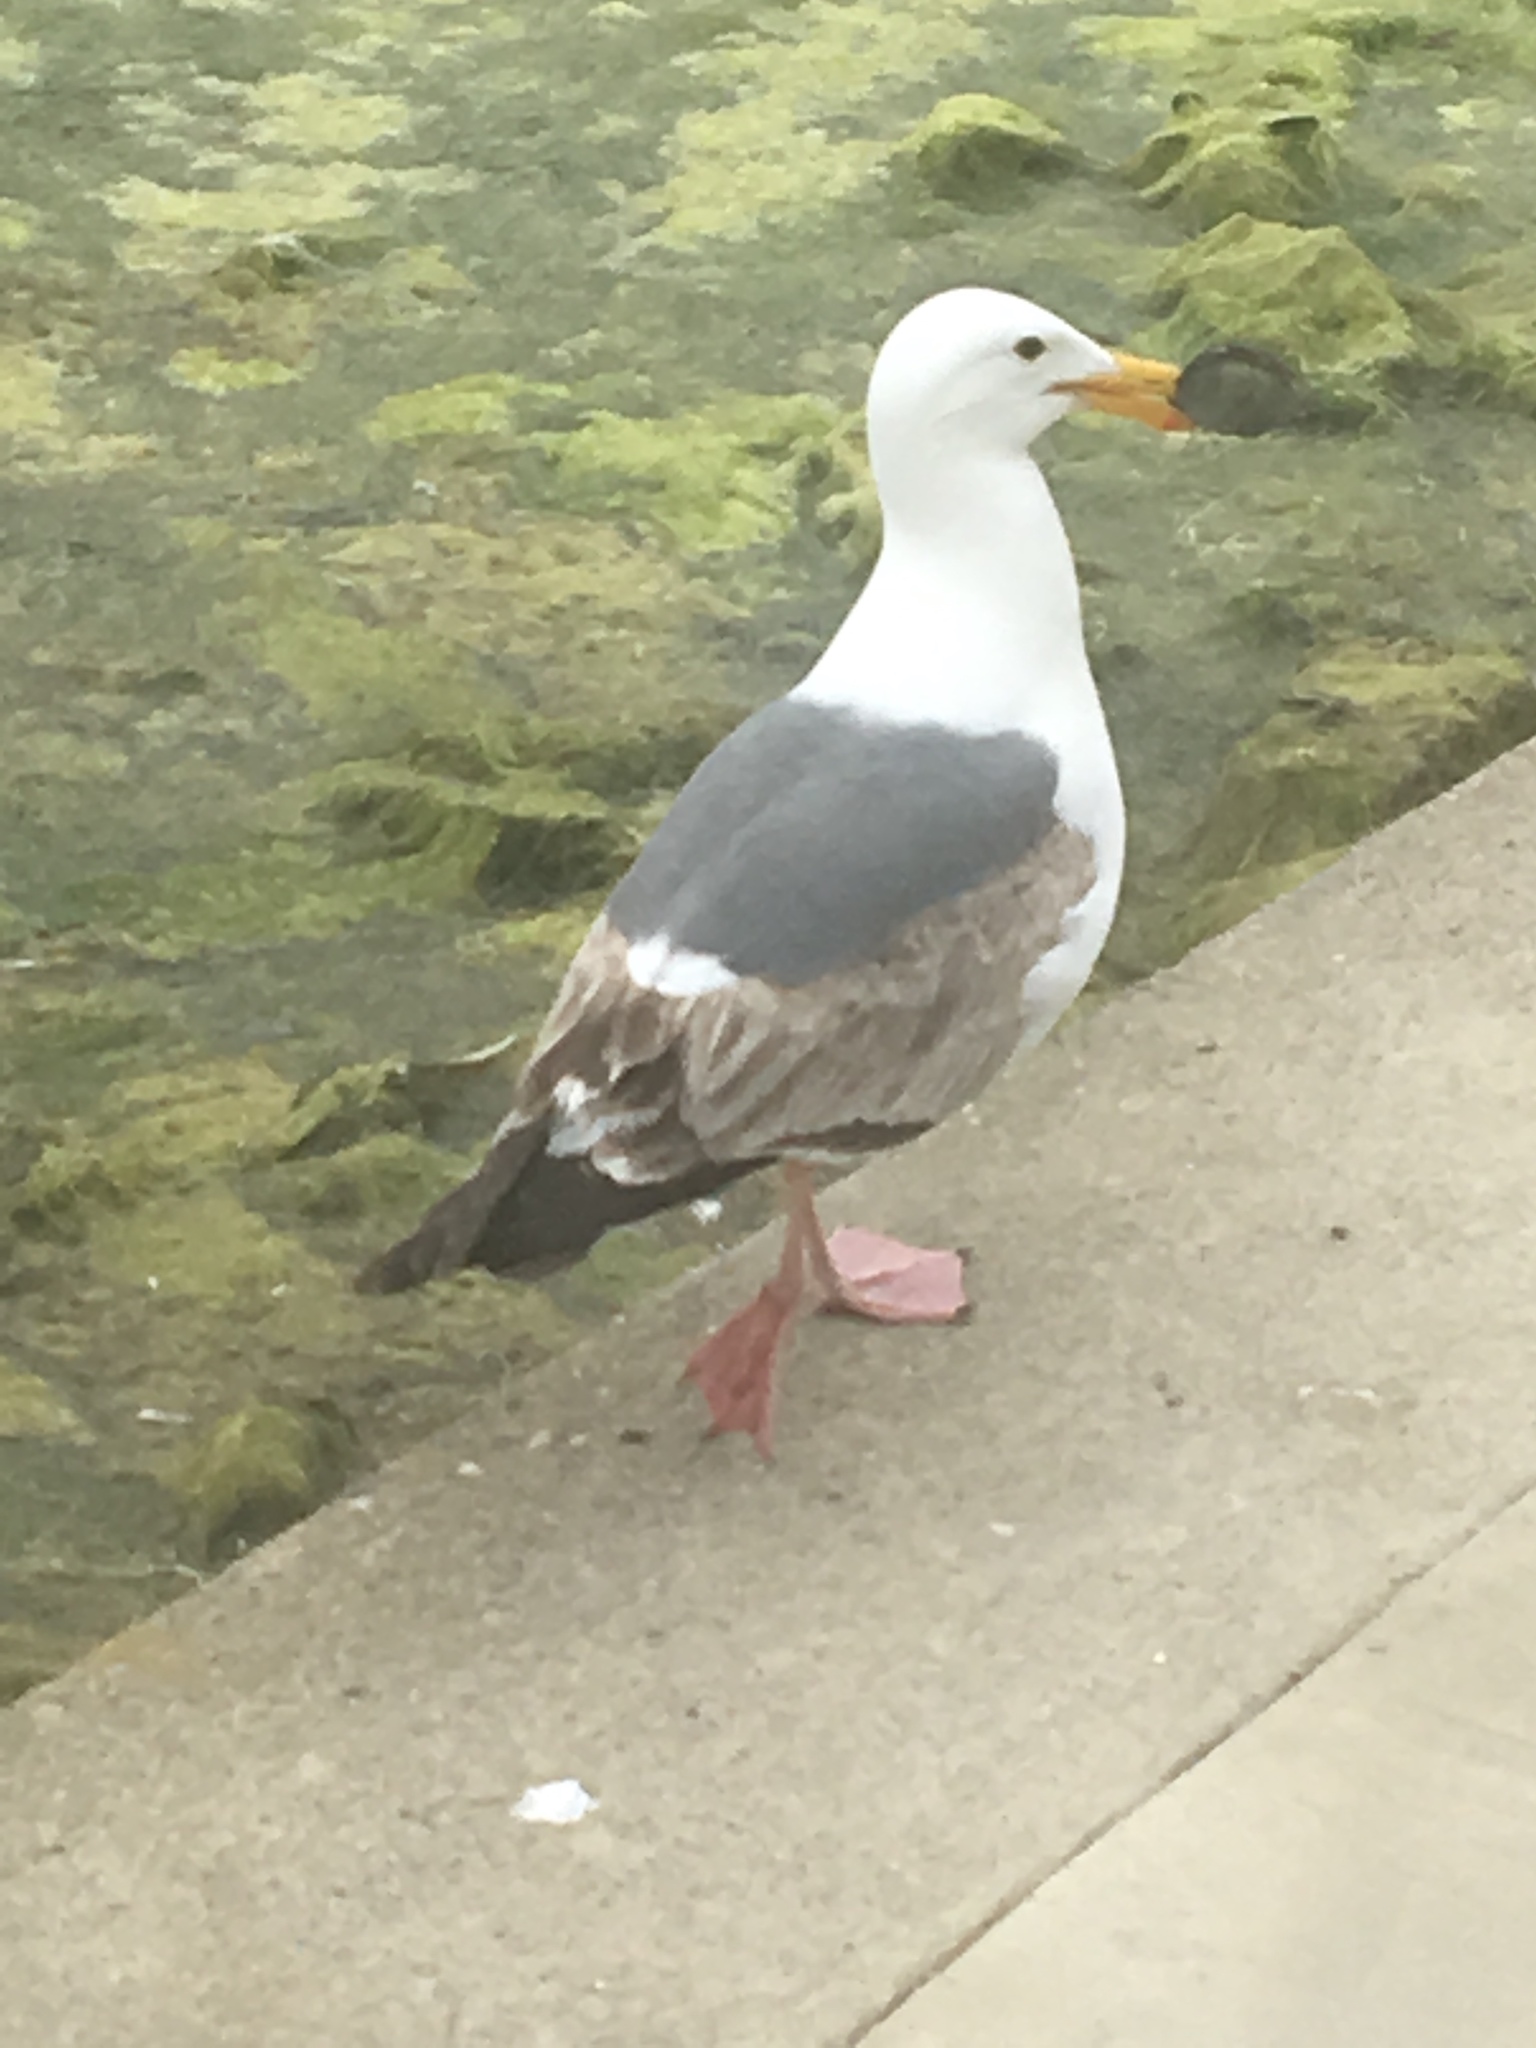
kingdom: Animalia
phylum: Chordata
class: Aves
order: Charadriiformes
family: Laridae
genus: Larus
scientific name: Larus occidentalis
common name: Western gull
